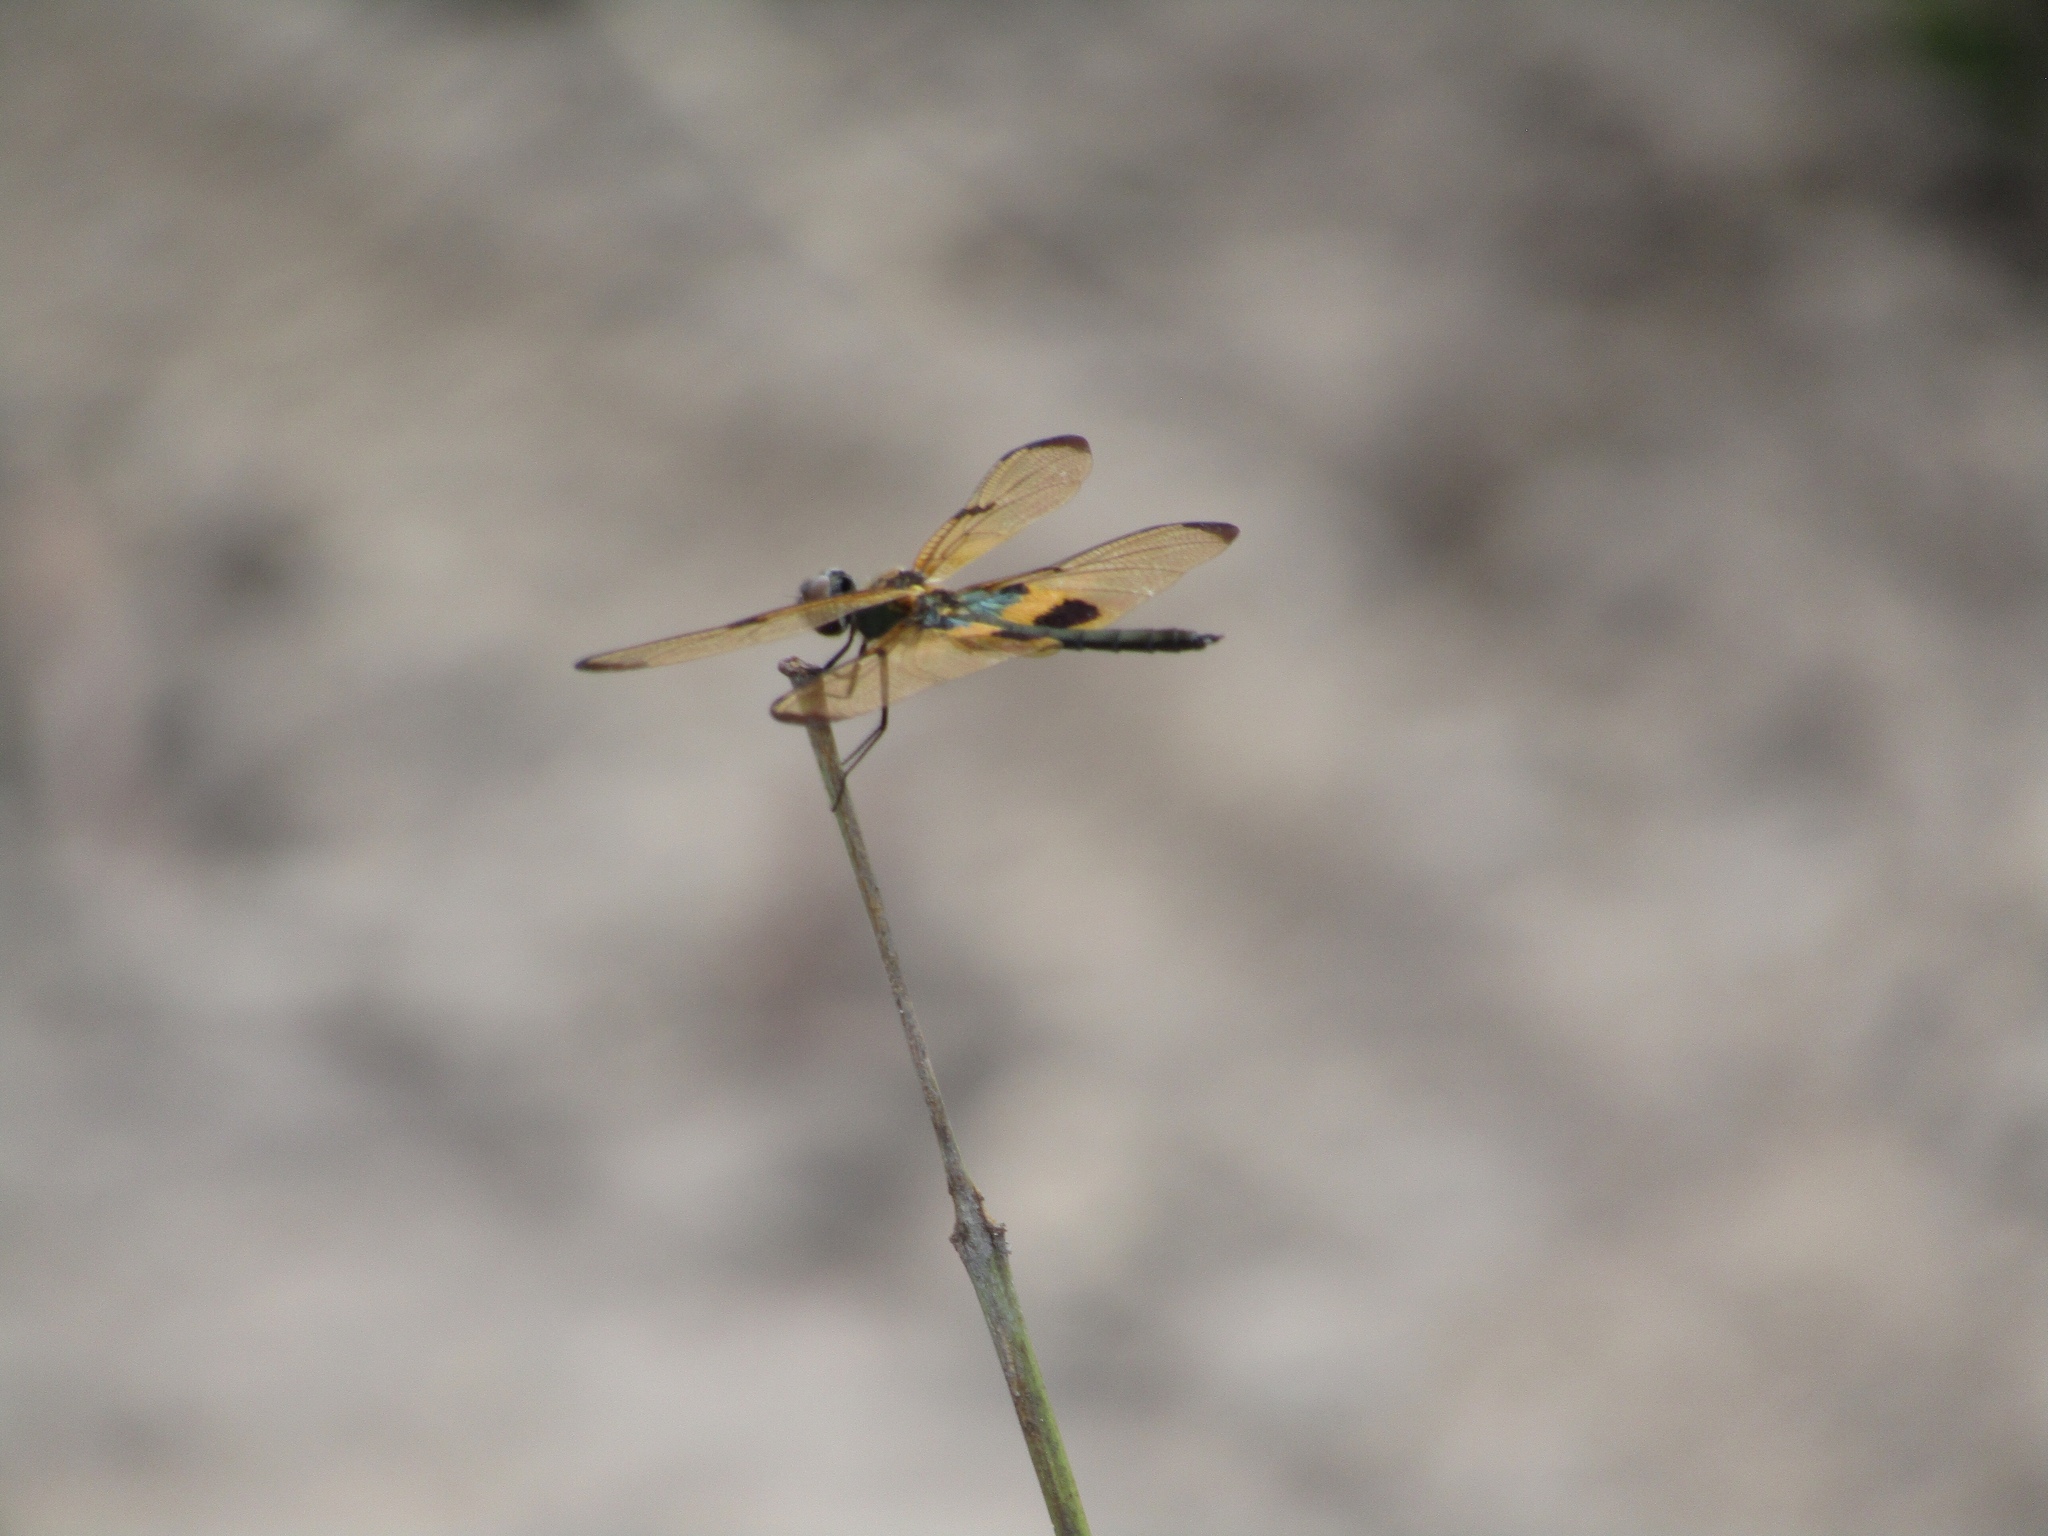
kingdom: Animalia
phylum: Arthropoda
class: Insecta
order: Odonata
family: Libellulidae
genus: Rhyothemis
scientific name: Rhyothemis phyllis
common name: Yellow-barred flutterer
